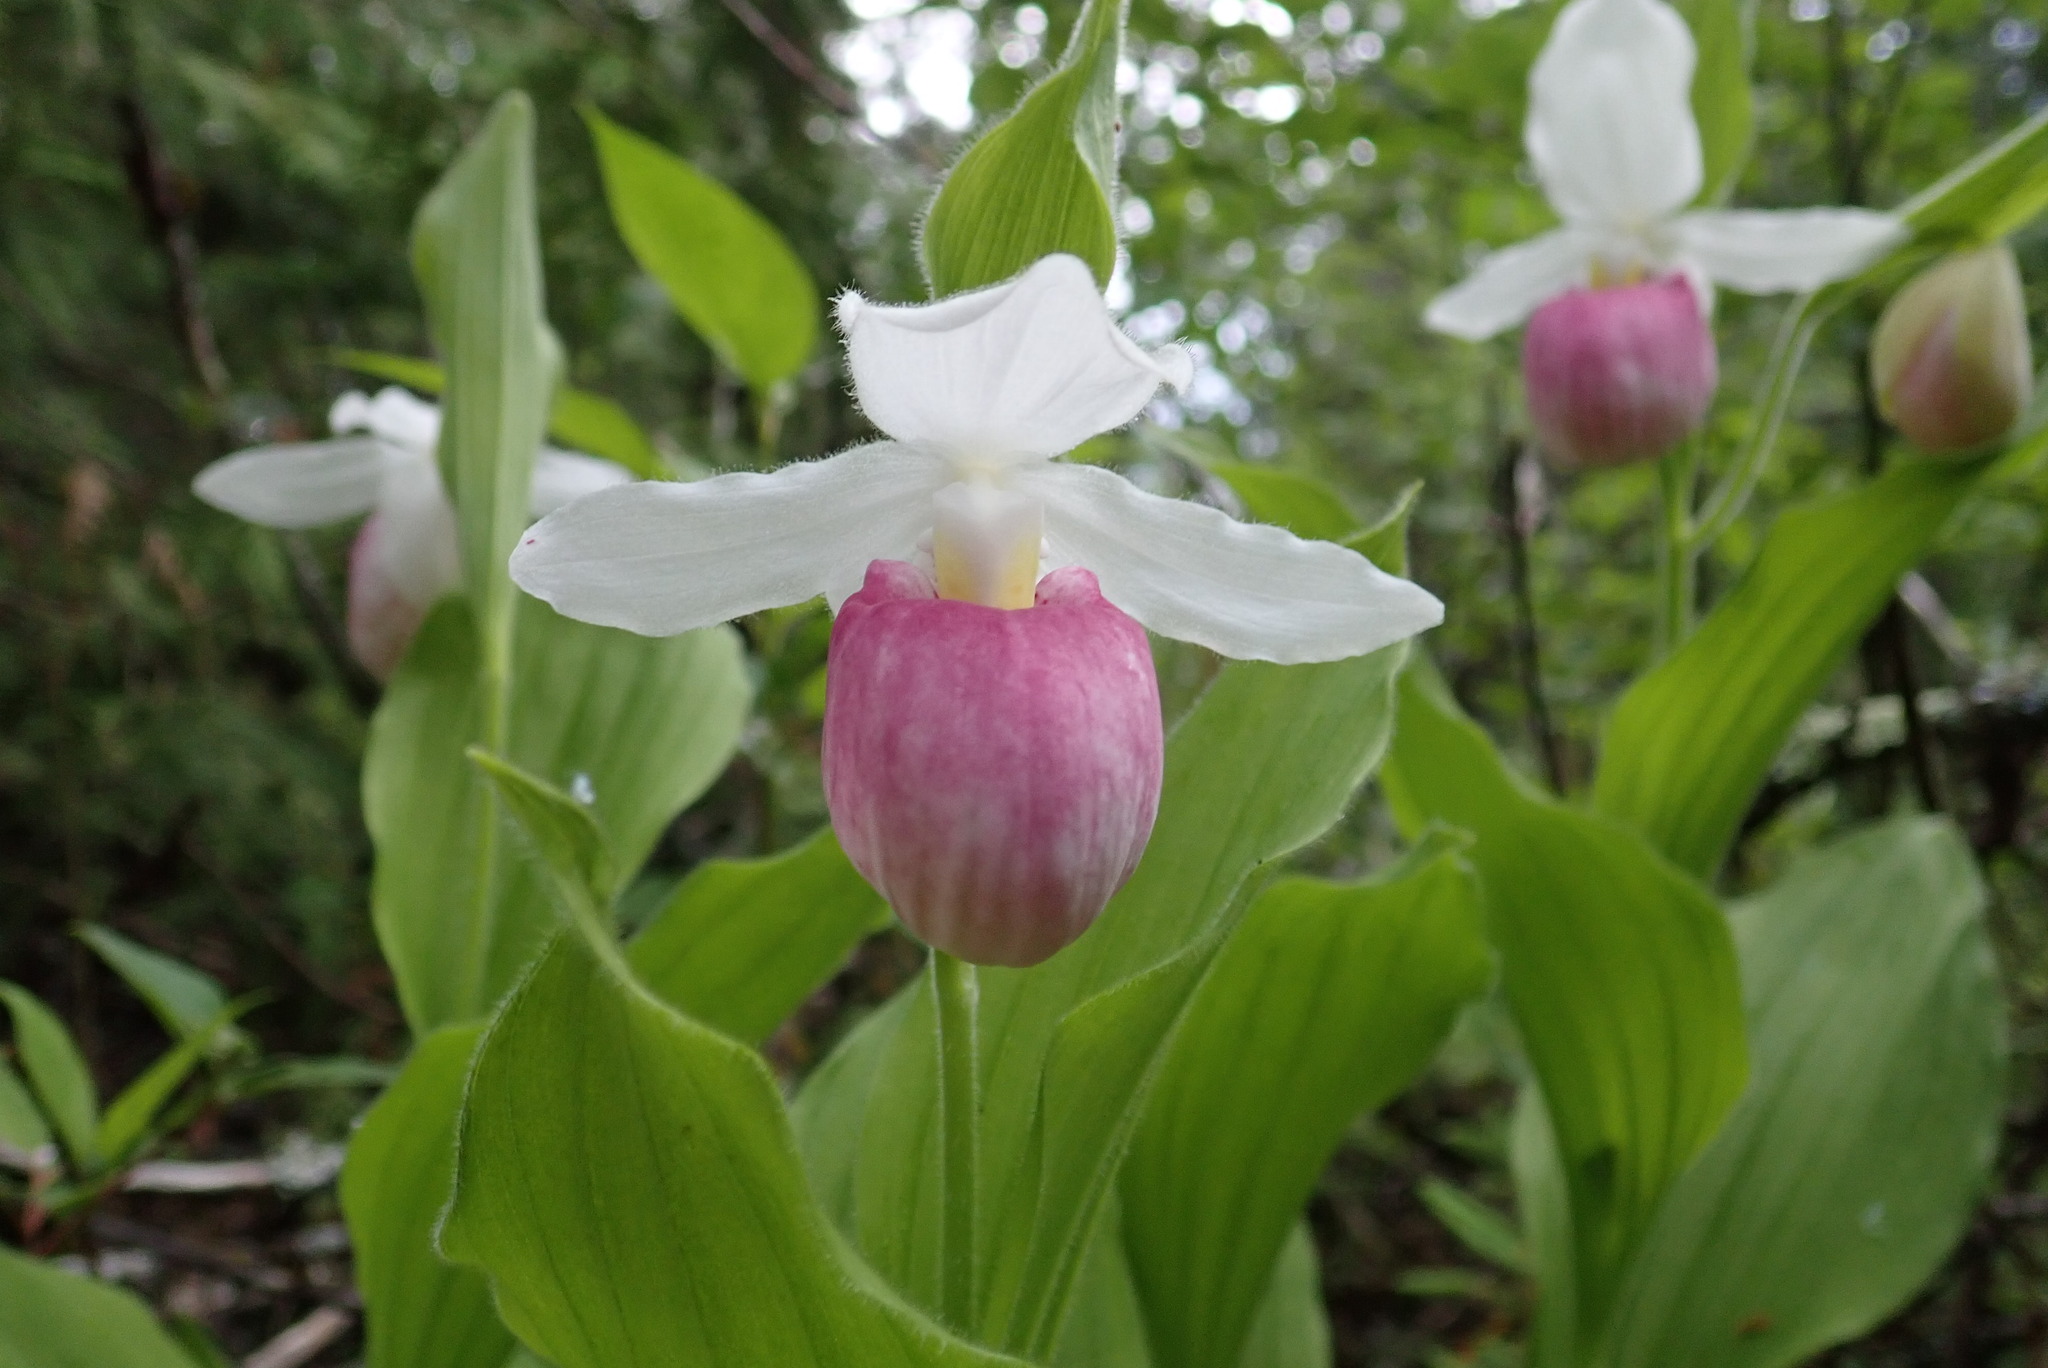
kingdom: Plantae
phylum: Tracheophyta
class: Liliopsida
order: Asparagales
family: Orchidaceae
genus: Cypripedium
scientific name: Cypripedium reginae
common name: Queen lady's-slipper
